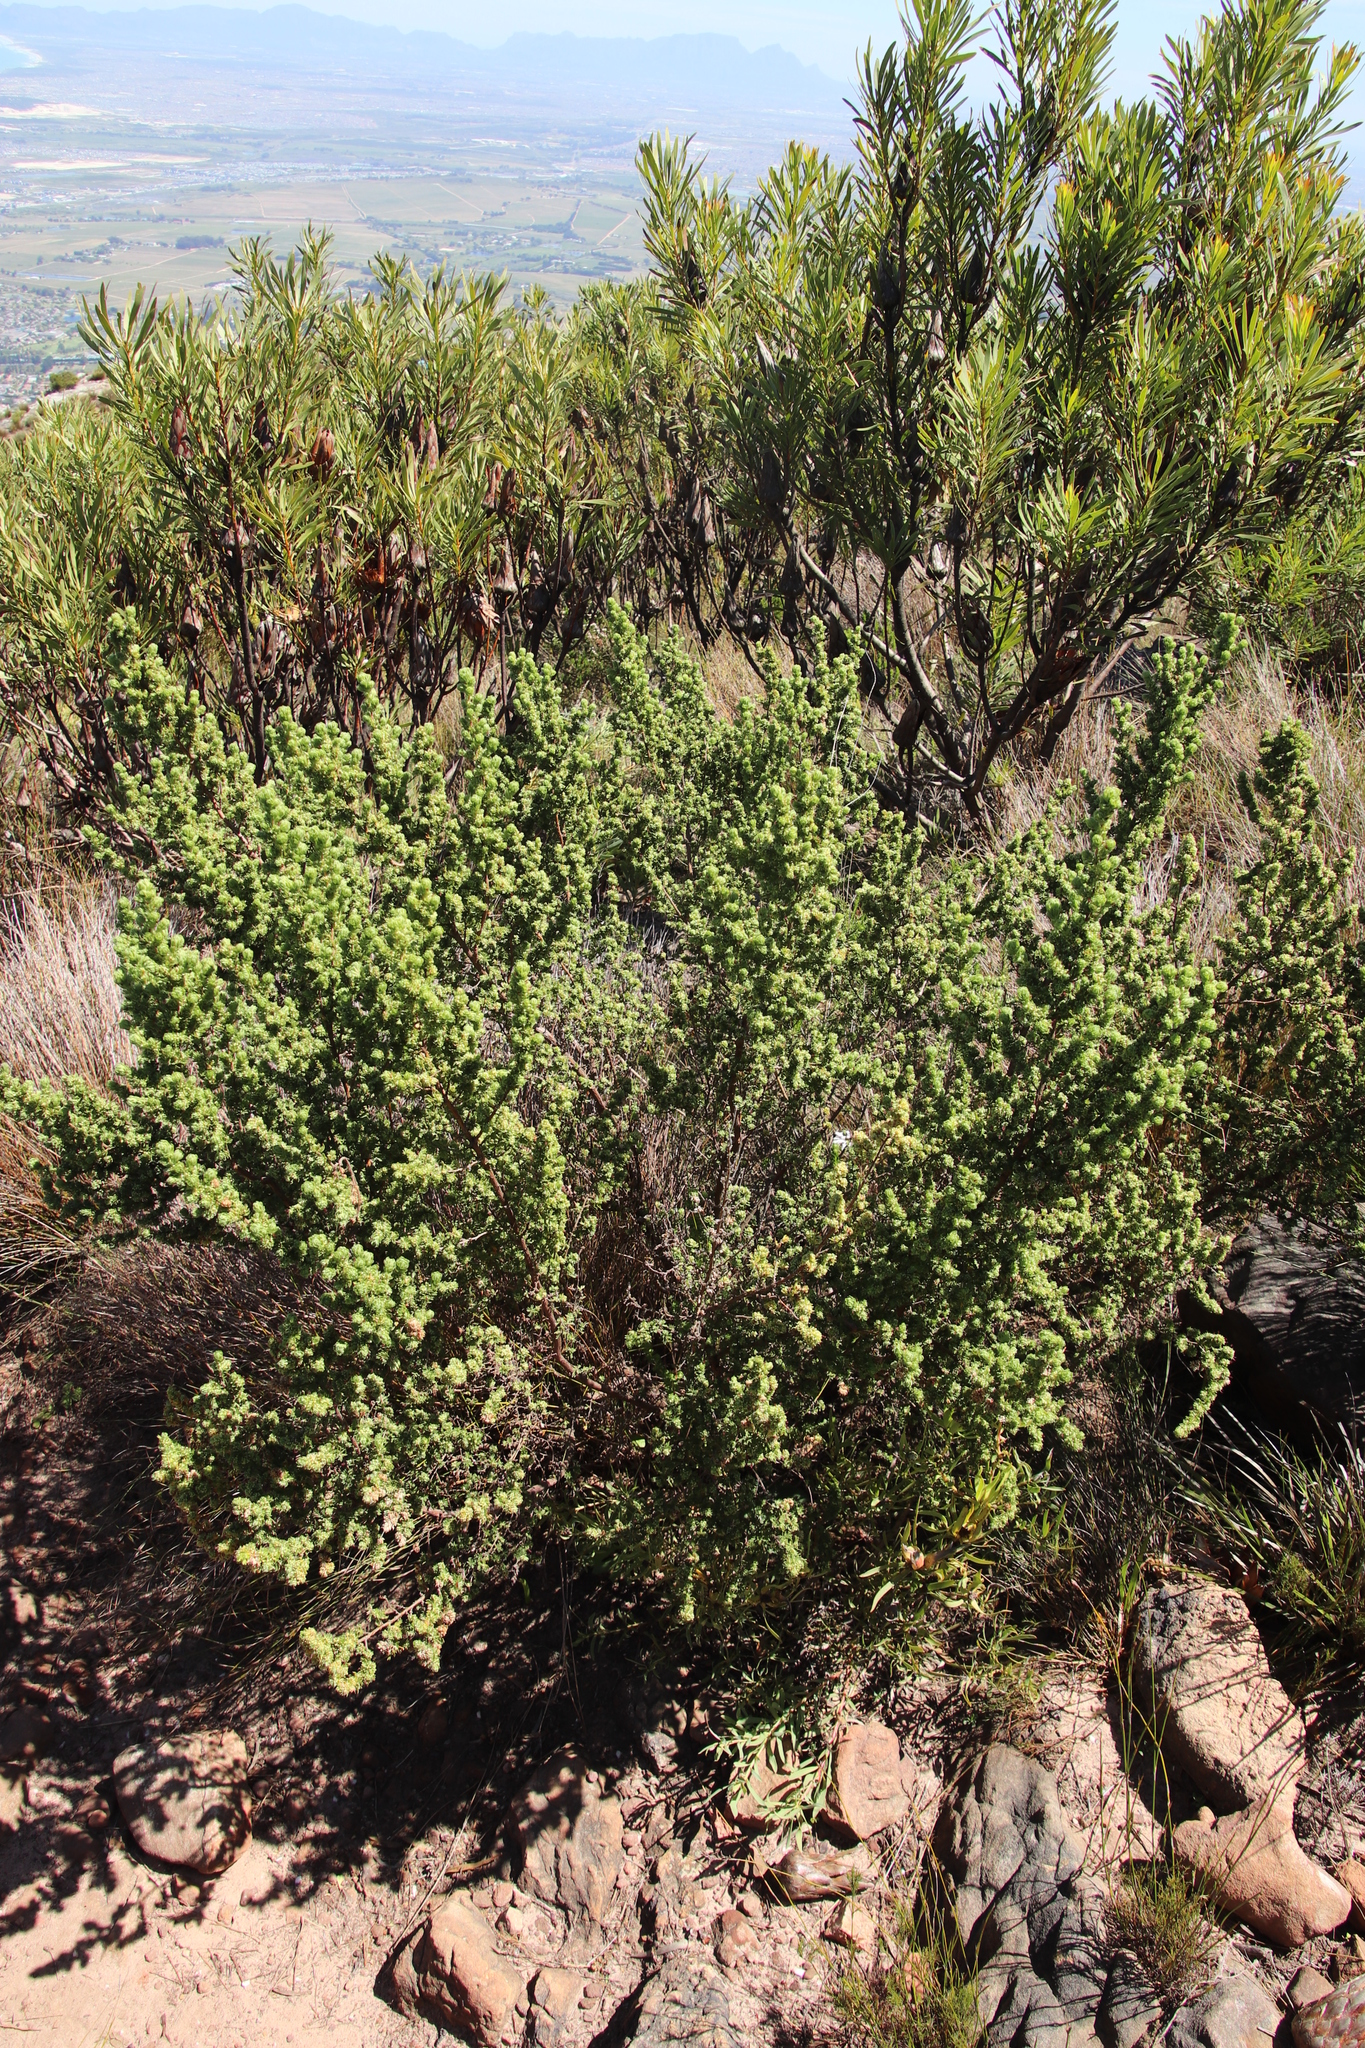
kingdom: Plantae
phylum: Tracheophyta
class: Magnoliopsida
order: Rosales
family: Rosaceae
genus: Cliffortia
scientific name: Cliffortia polygonifolia
